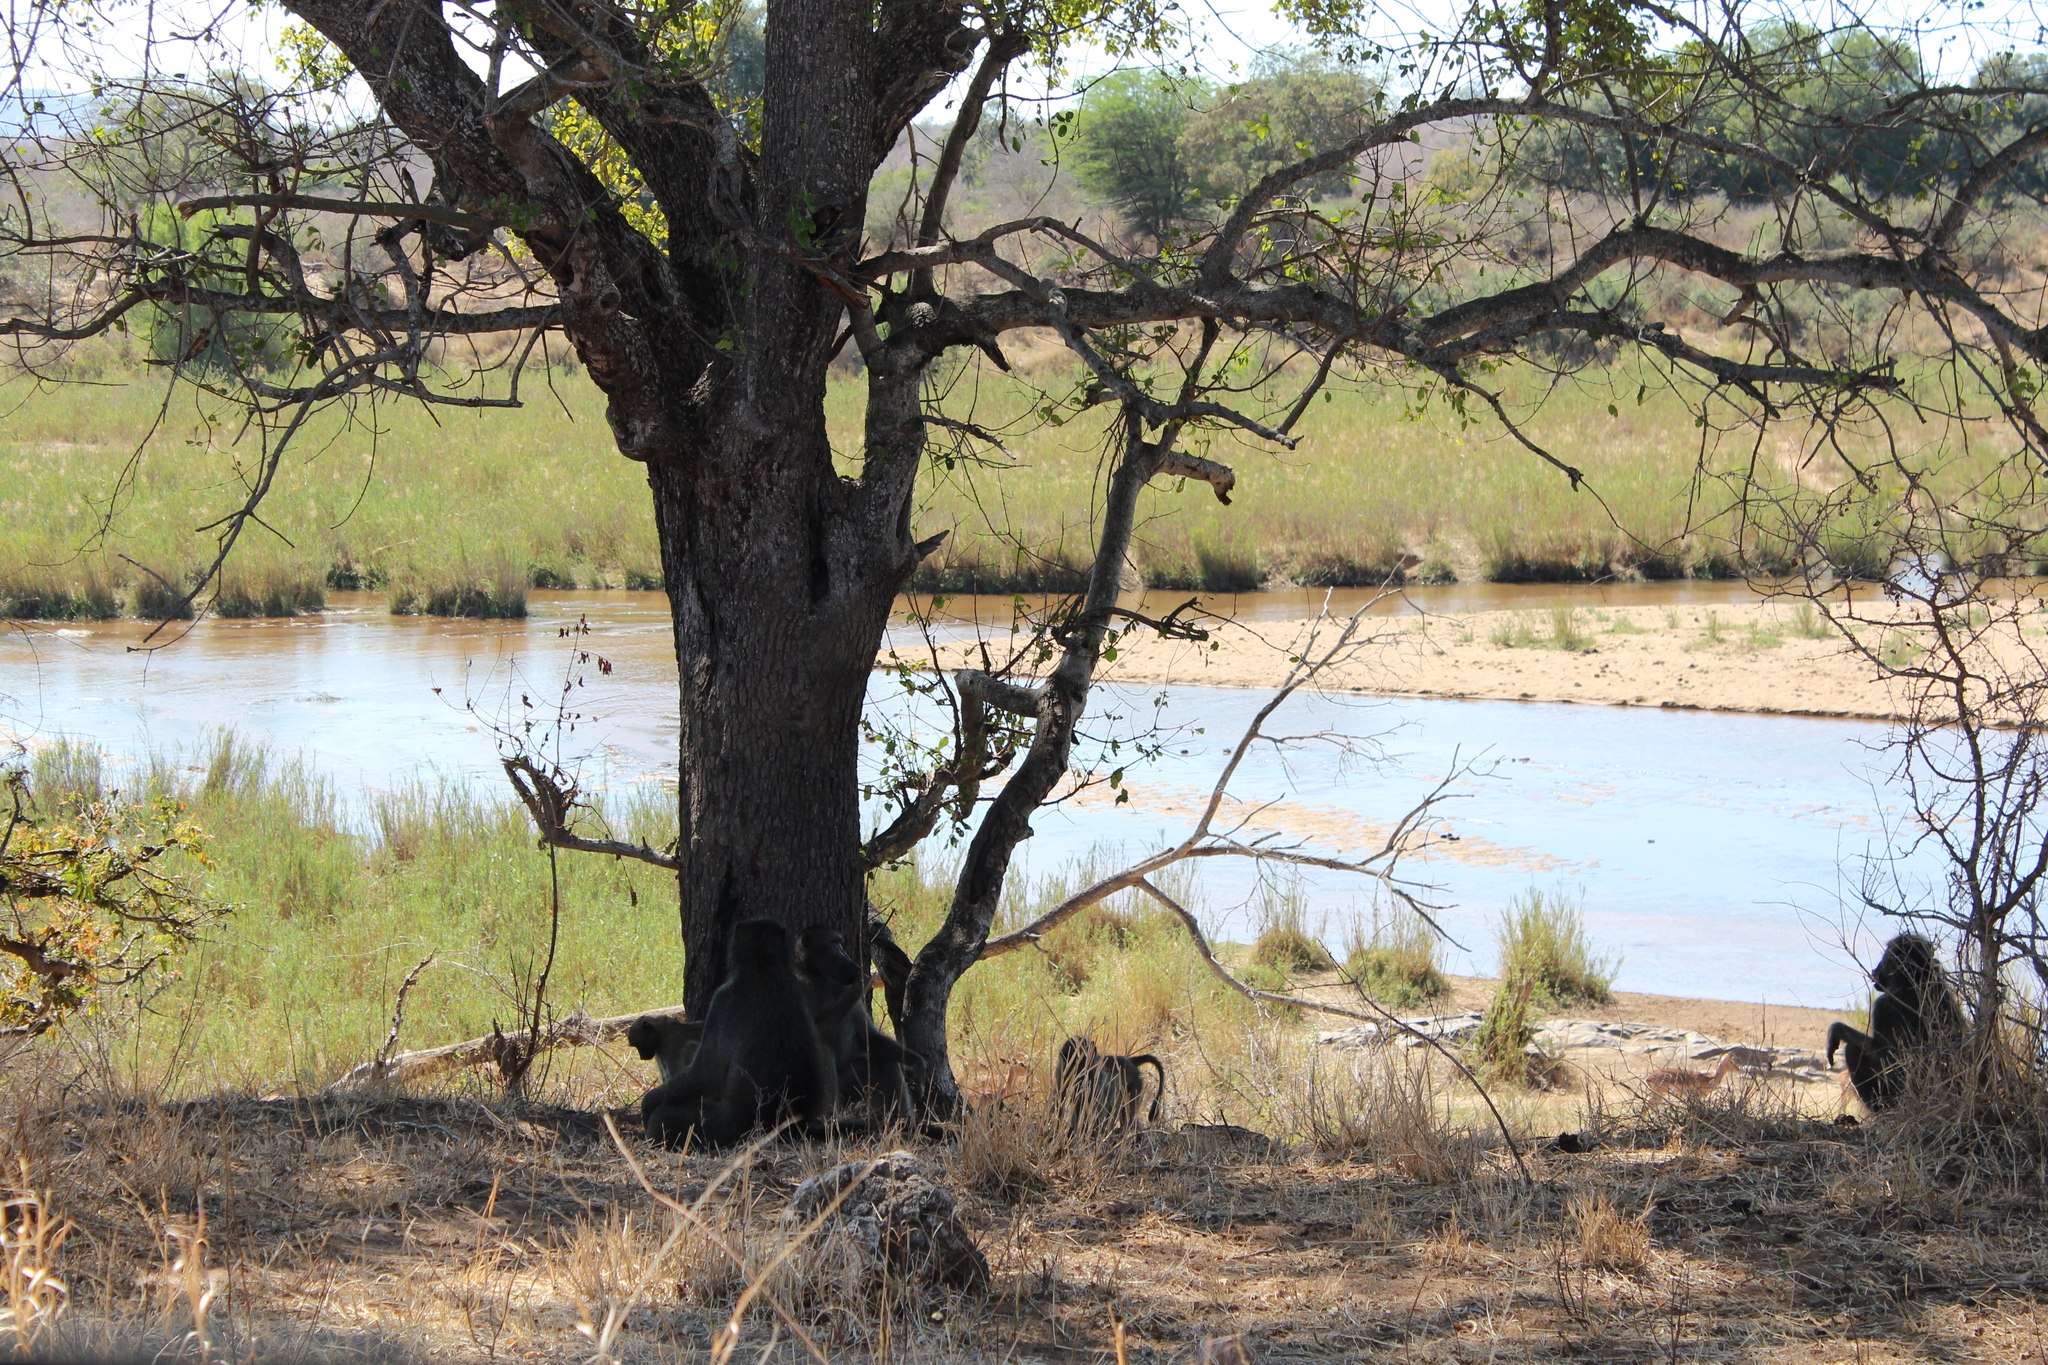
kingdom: Animalia
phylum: Chordata
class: Mammalia
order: Primates
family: Cercopithecidae
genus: Papio
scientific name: Papio ursinus
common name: Chacma baboon
